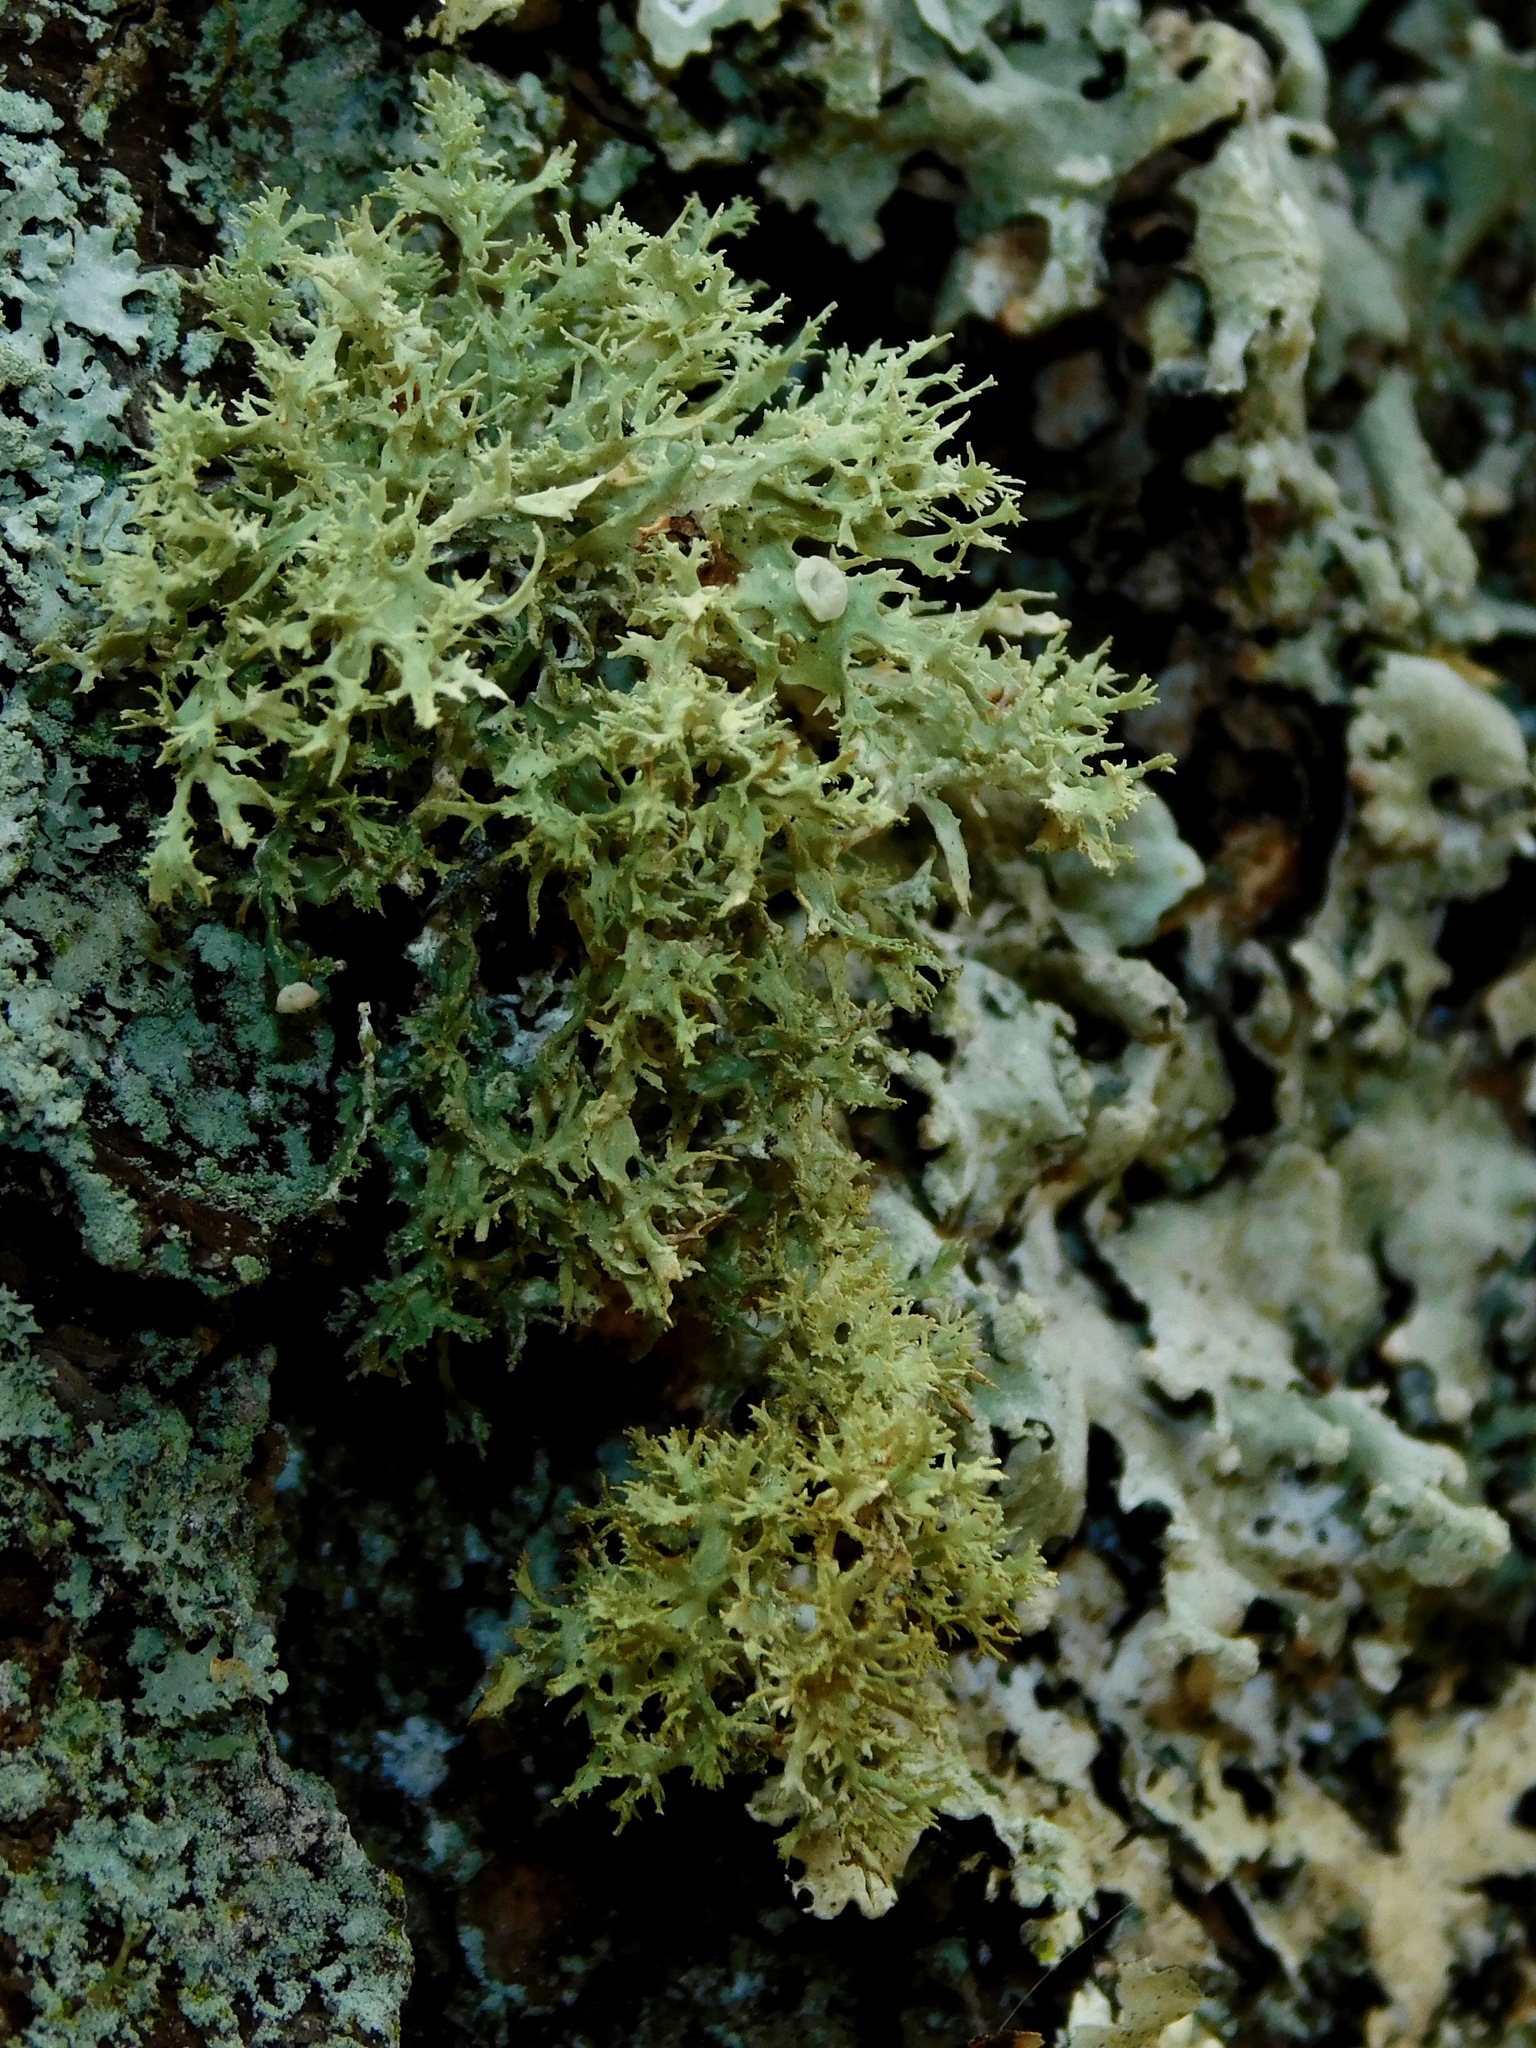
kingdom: Fungi
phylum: Ascomycota
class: Lecanoromycetes
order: Lecanorales
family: Ramalinaceae
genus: Ramalina
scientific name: Ramalina culbersoniorum
